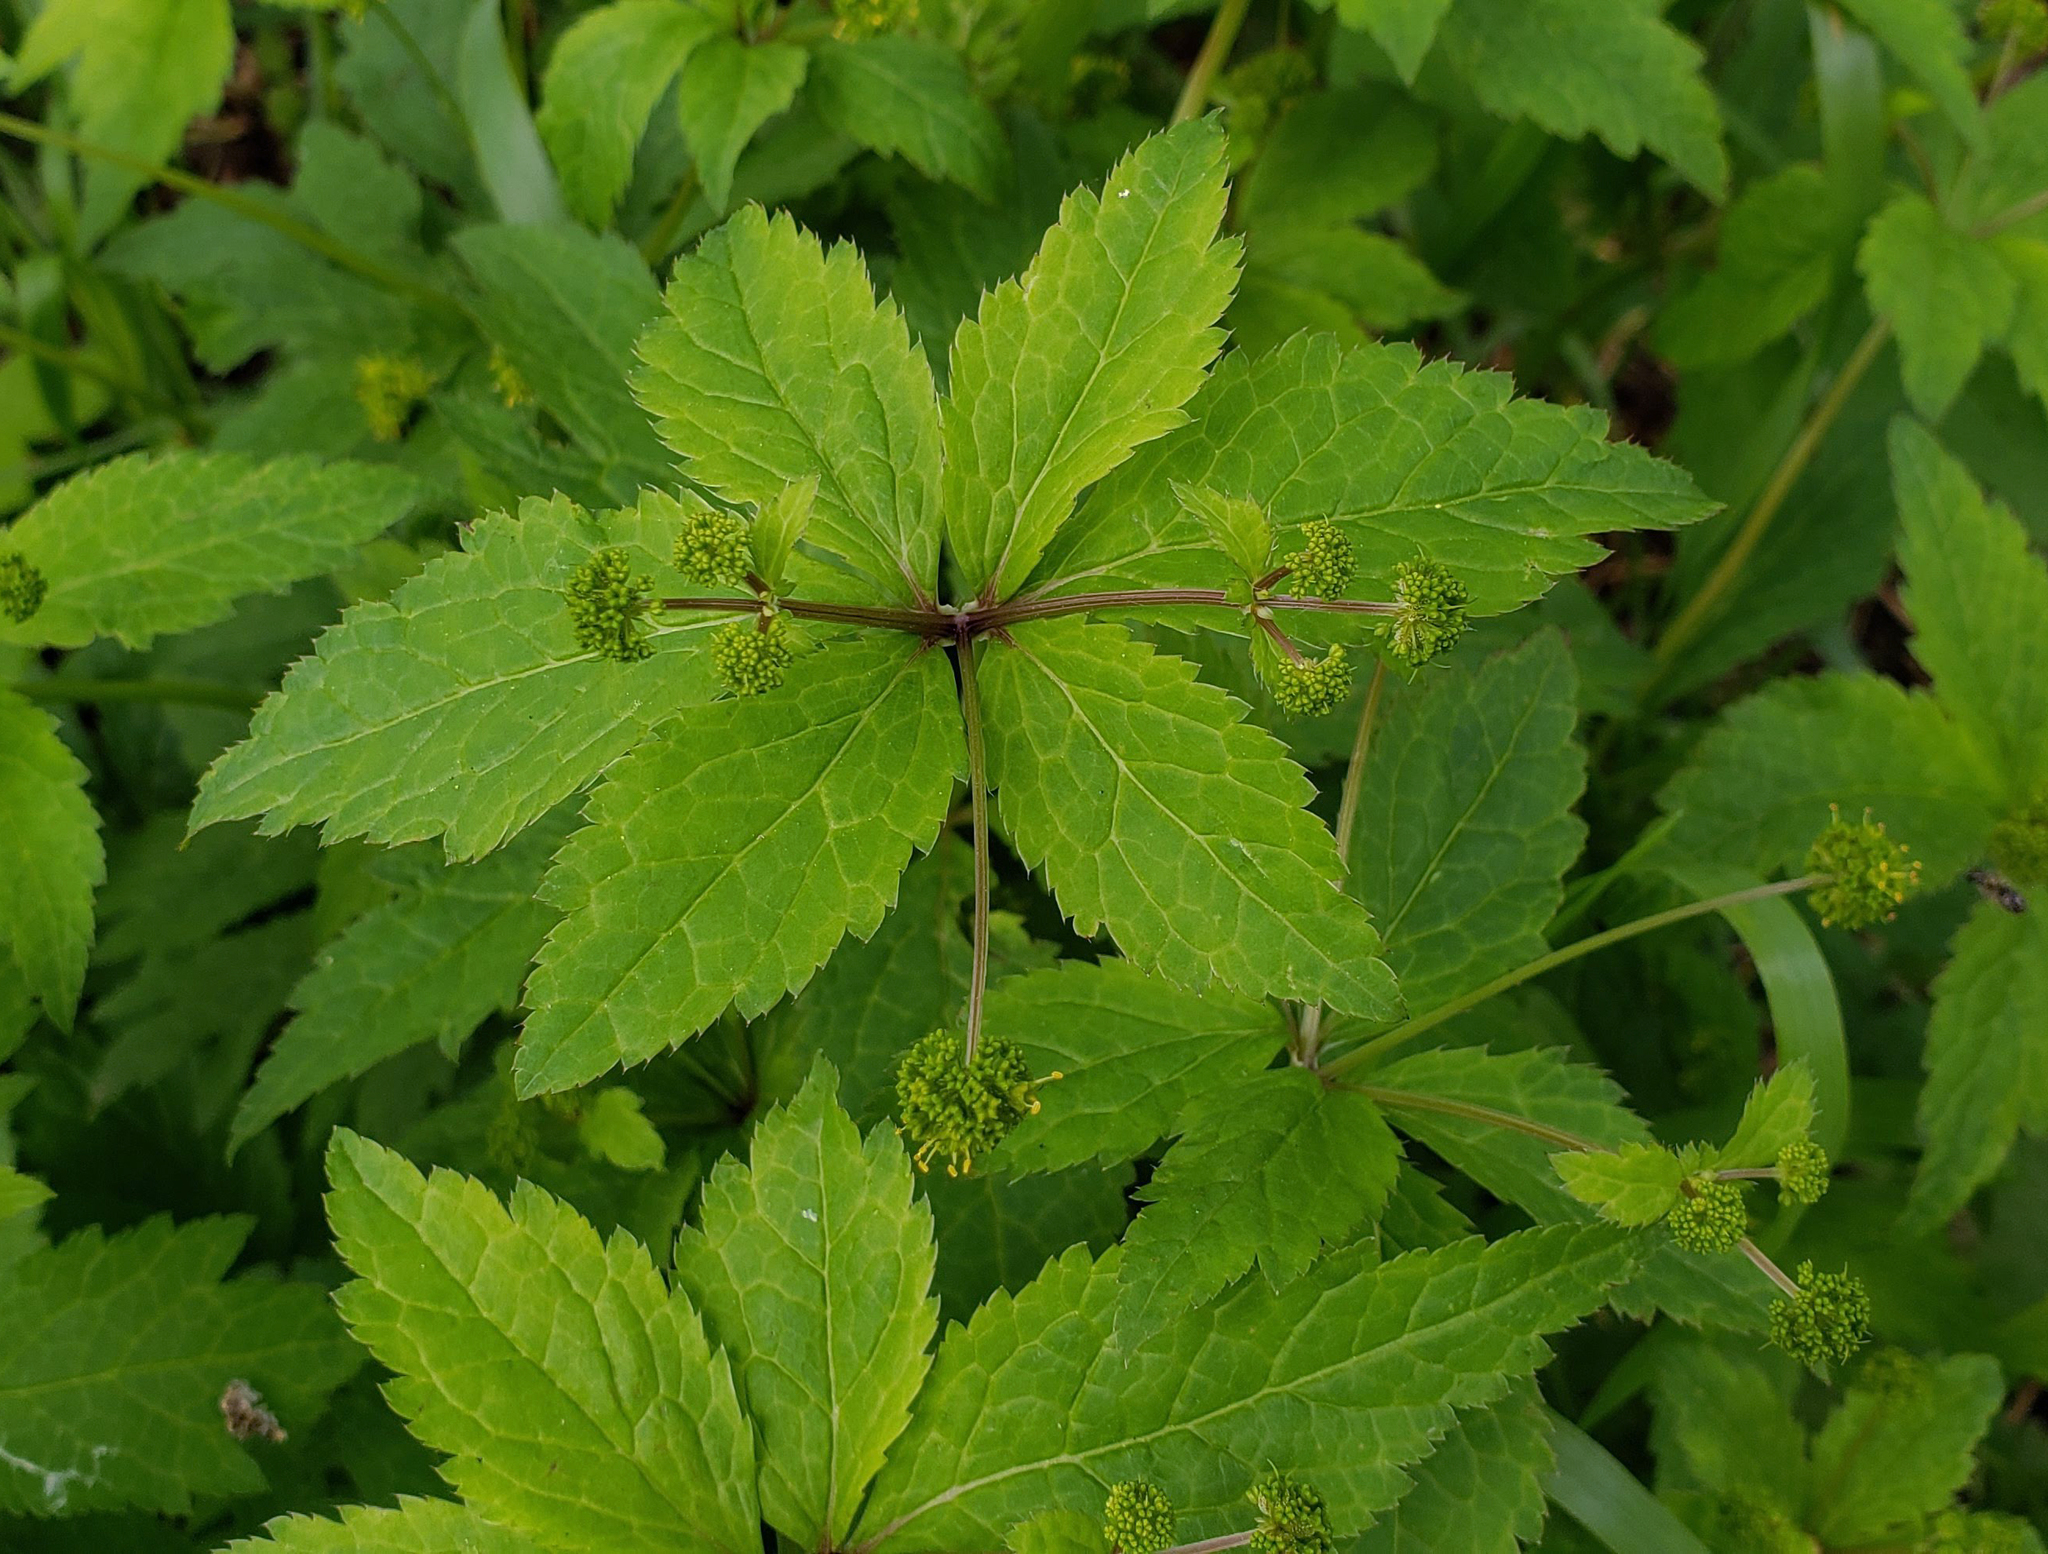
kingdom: Plantae
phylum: Tracheophyta
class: Magnoliopsida
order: Apiales
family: Apiaceae
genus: Sanicula
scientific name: Sanicula odorata
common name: Cluster sanicle
